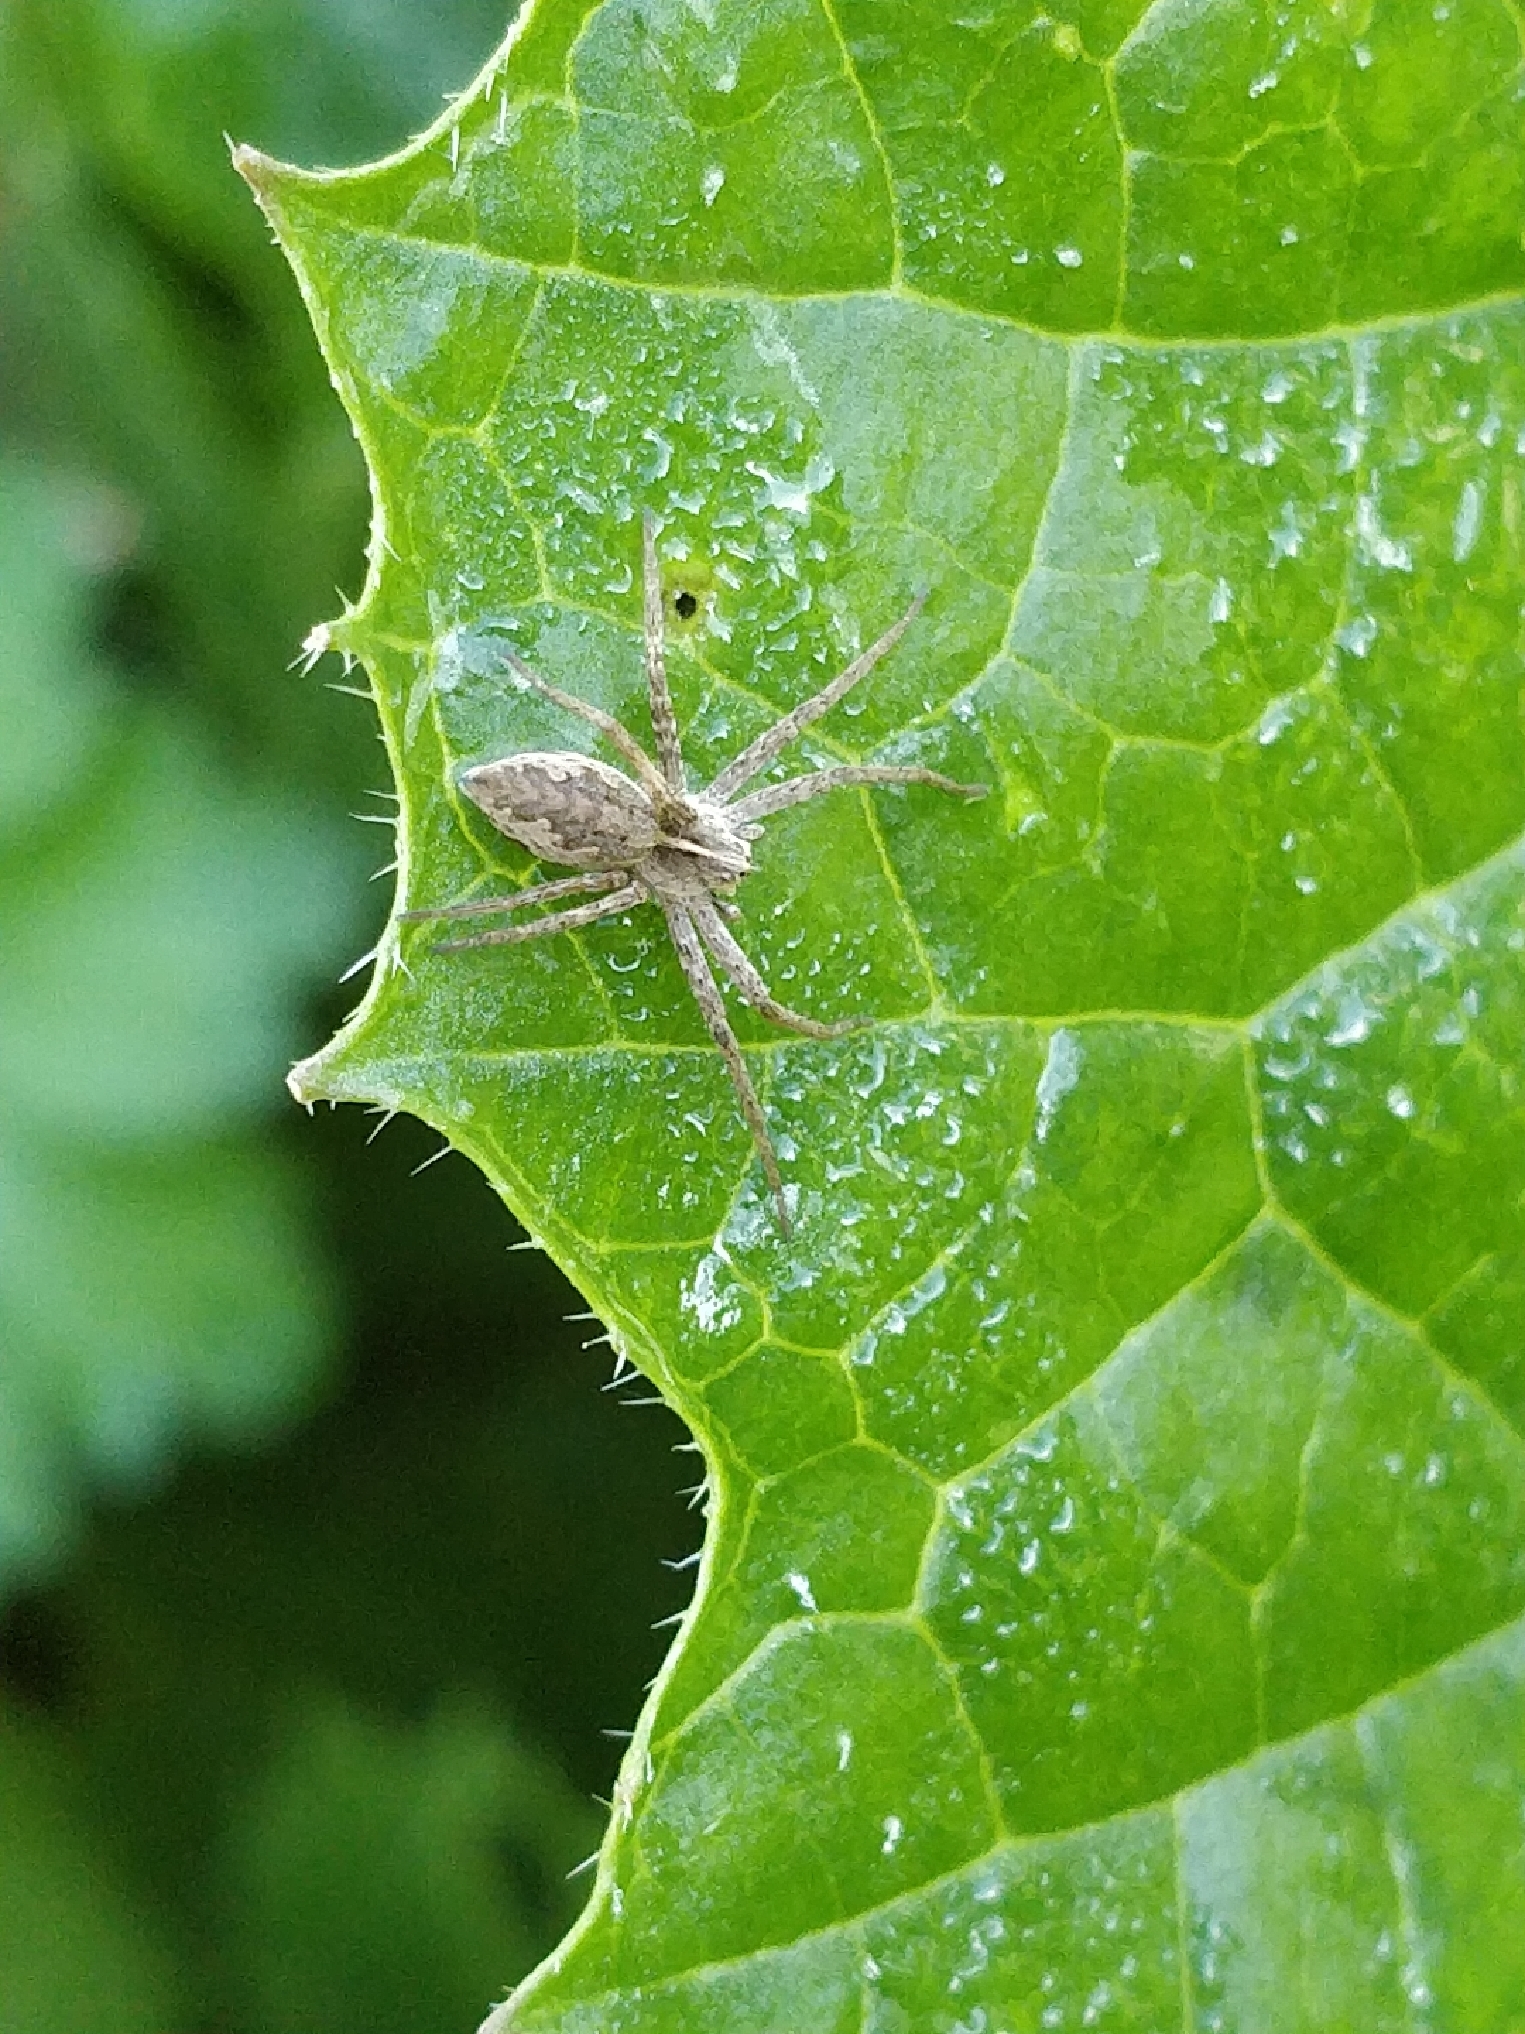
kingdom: Animalia
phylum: Arthropoda
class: Arachnida
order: Araneae
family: Pisauridae
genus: Pisaura
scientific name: Pisaura mirabilis
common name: Tent spider
